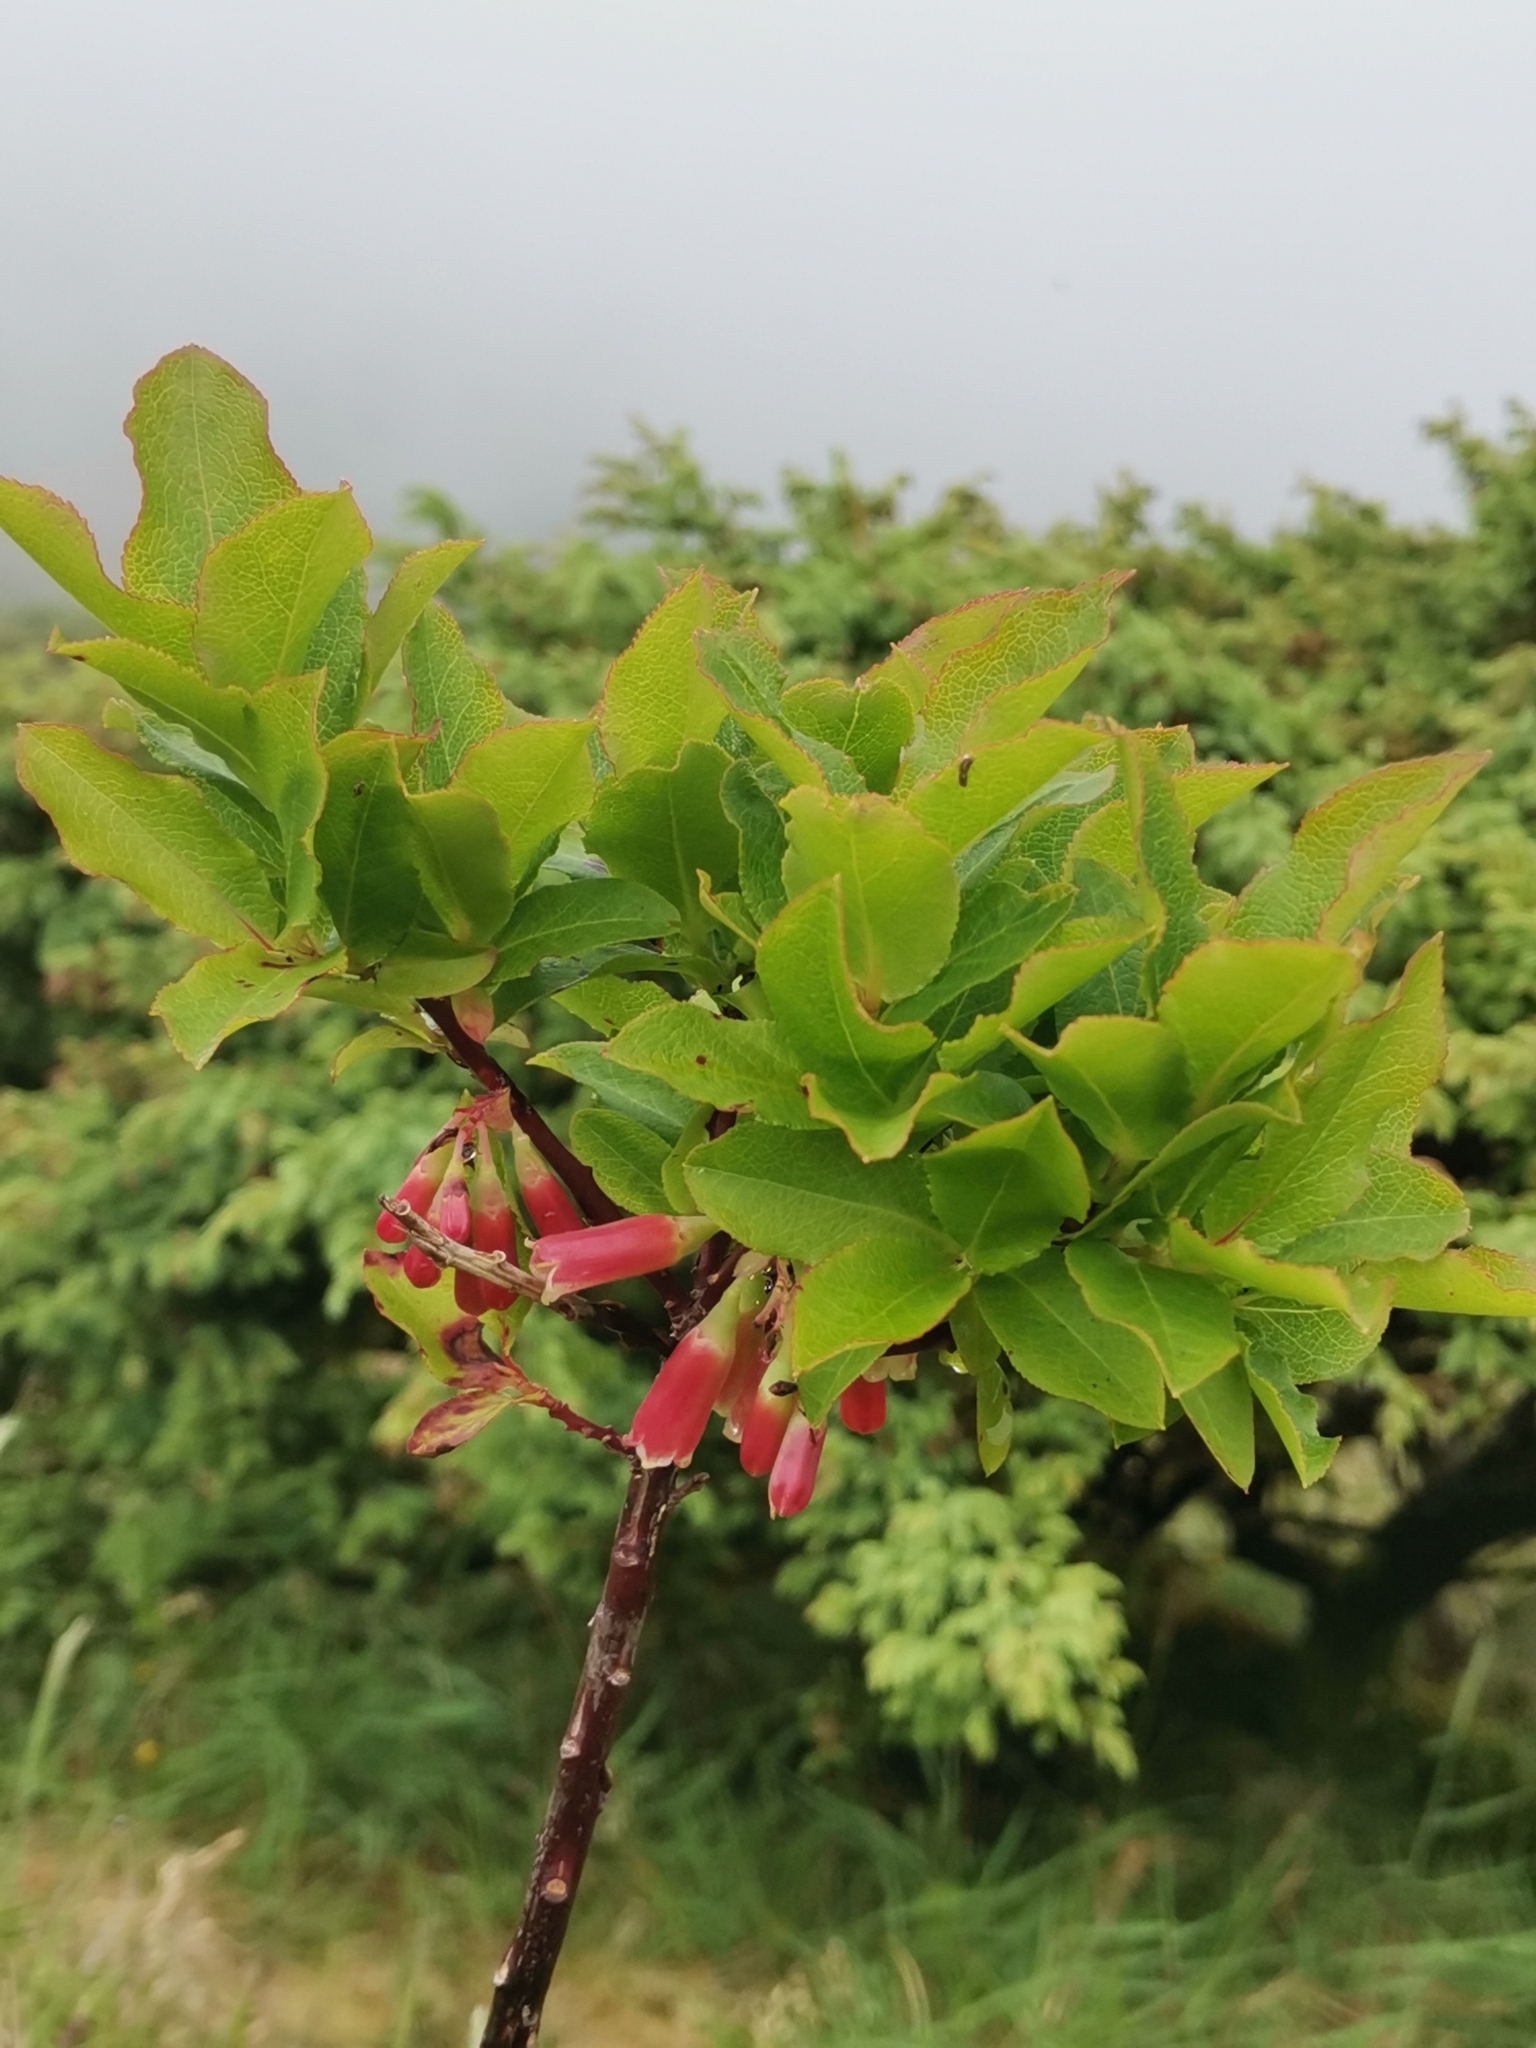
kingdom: Plantae
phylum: Tracheophyta
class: Magnoliopsida
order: Ericales
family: Ericaceae
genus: Vaccinium
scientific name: Vaccinium cylindraceum
